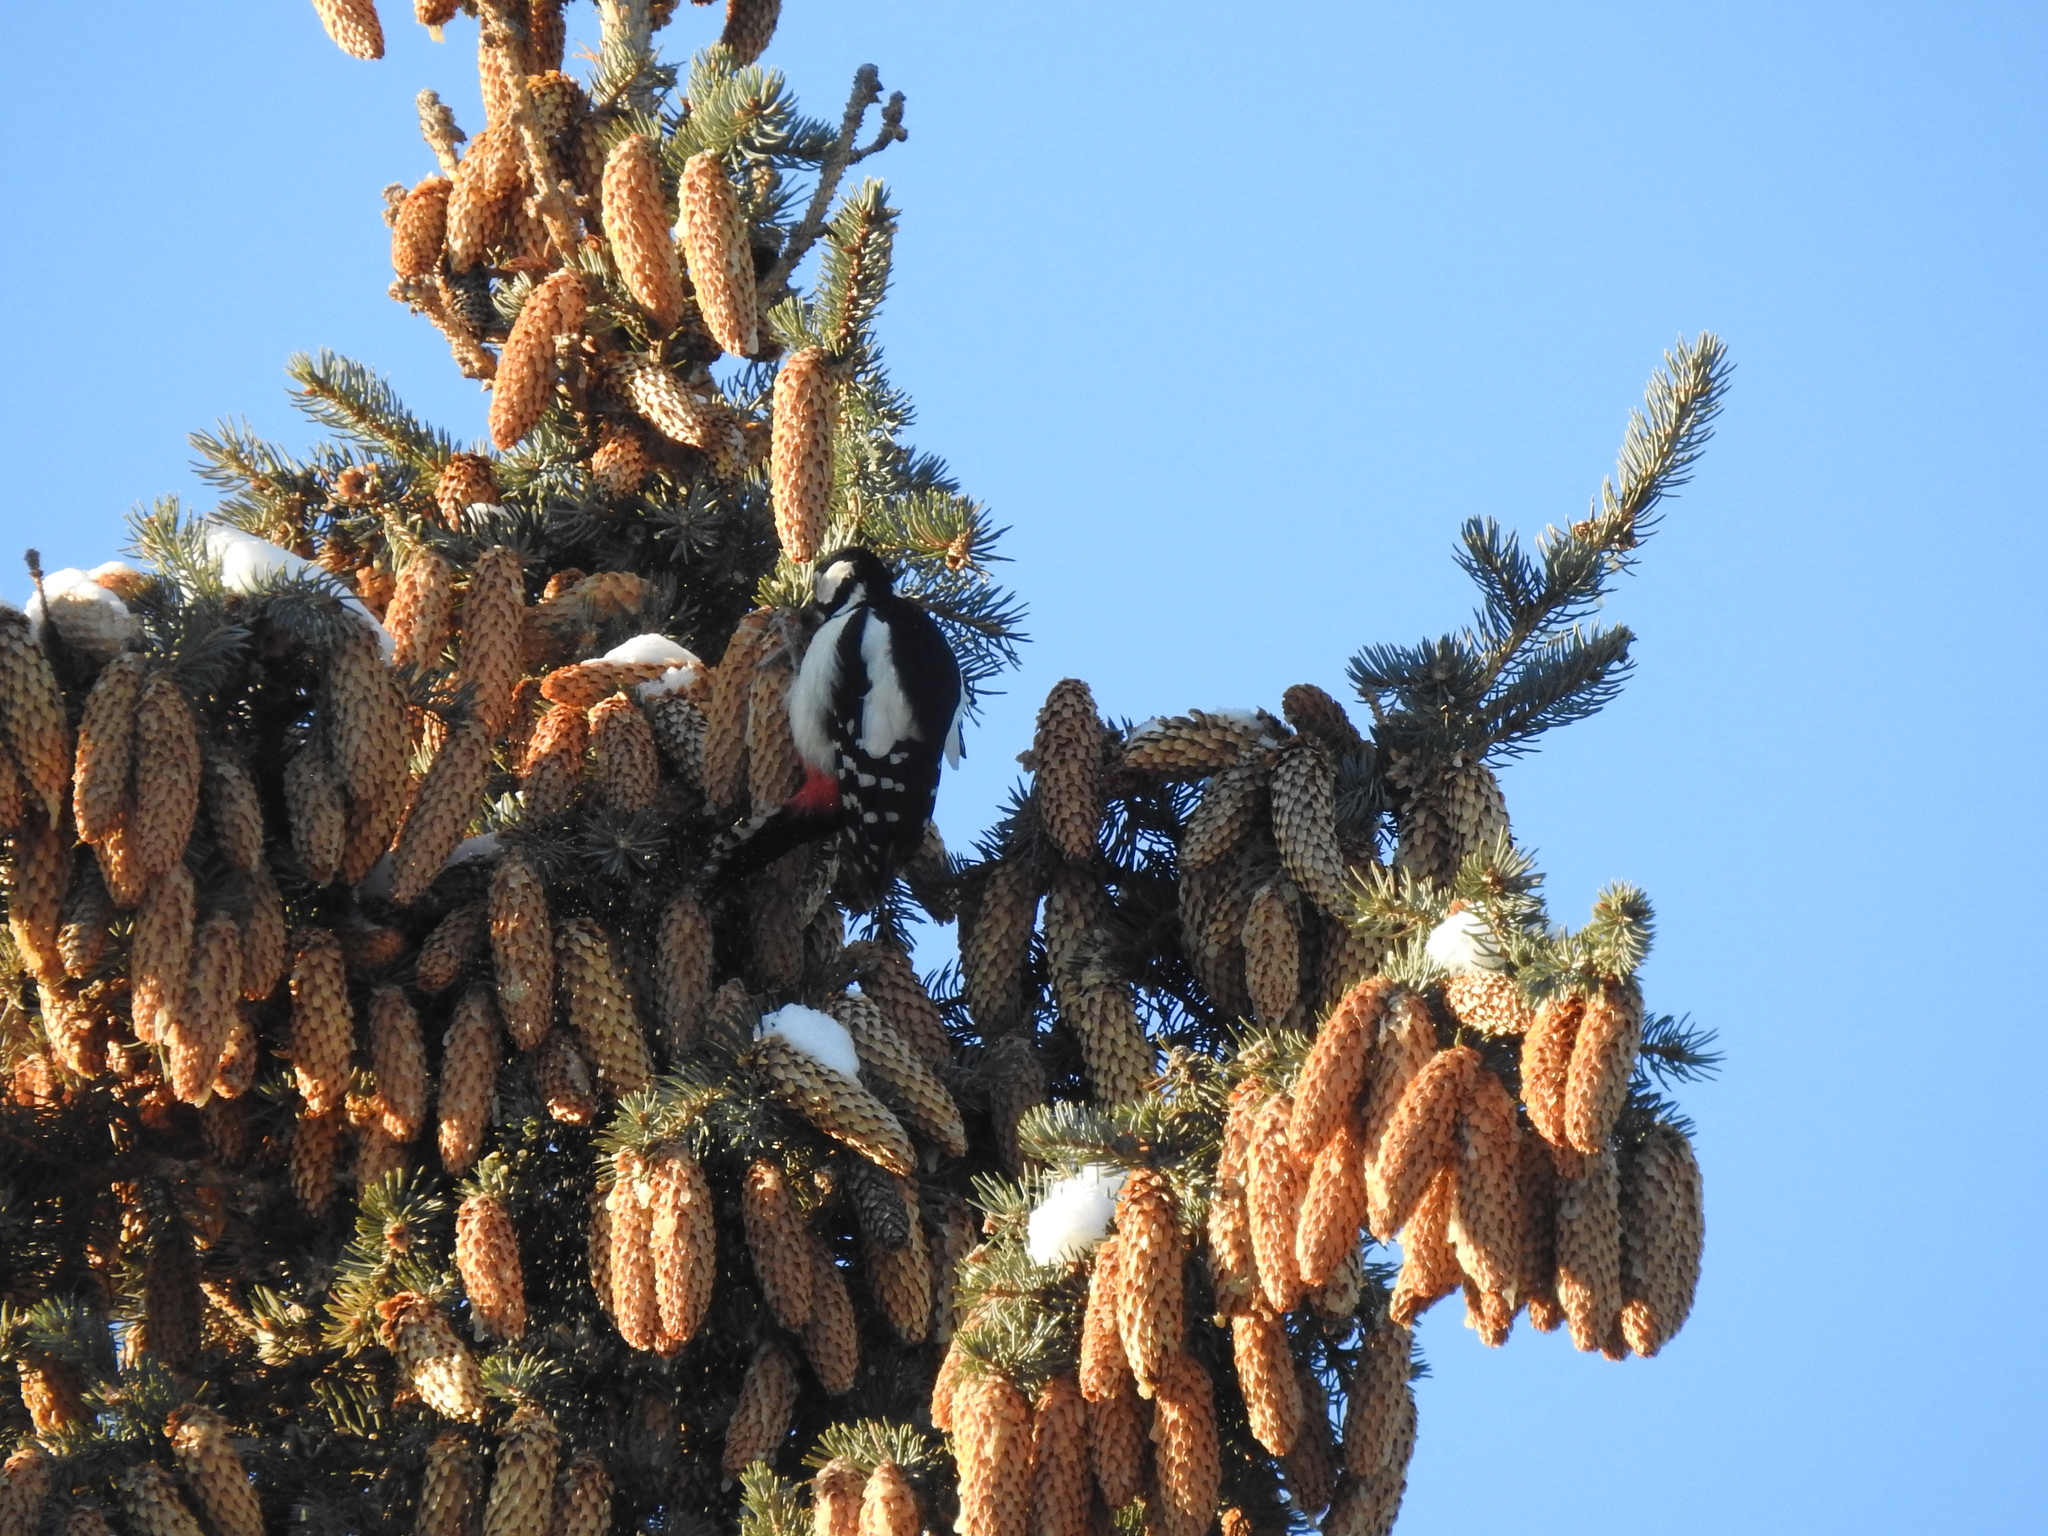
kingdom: Animalia
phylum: Chordata
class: Aves
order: Piciformes
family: Picidae
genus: Dendrocopos
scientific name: Dendrocopos major
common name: Great spotted woodpecker
